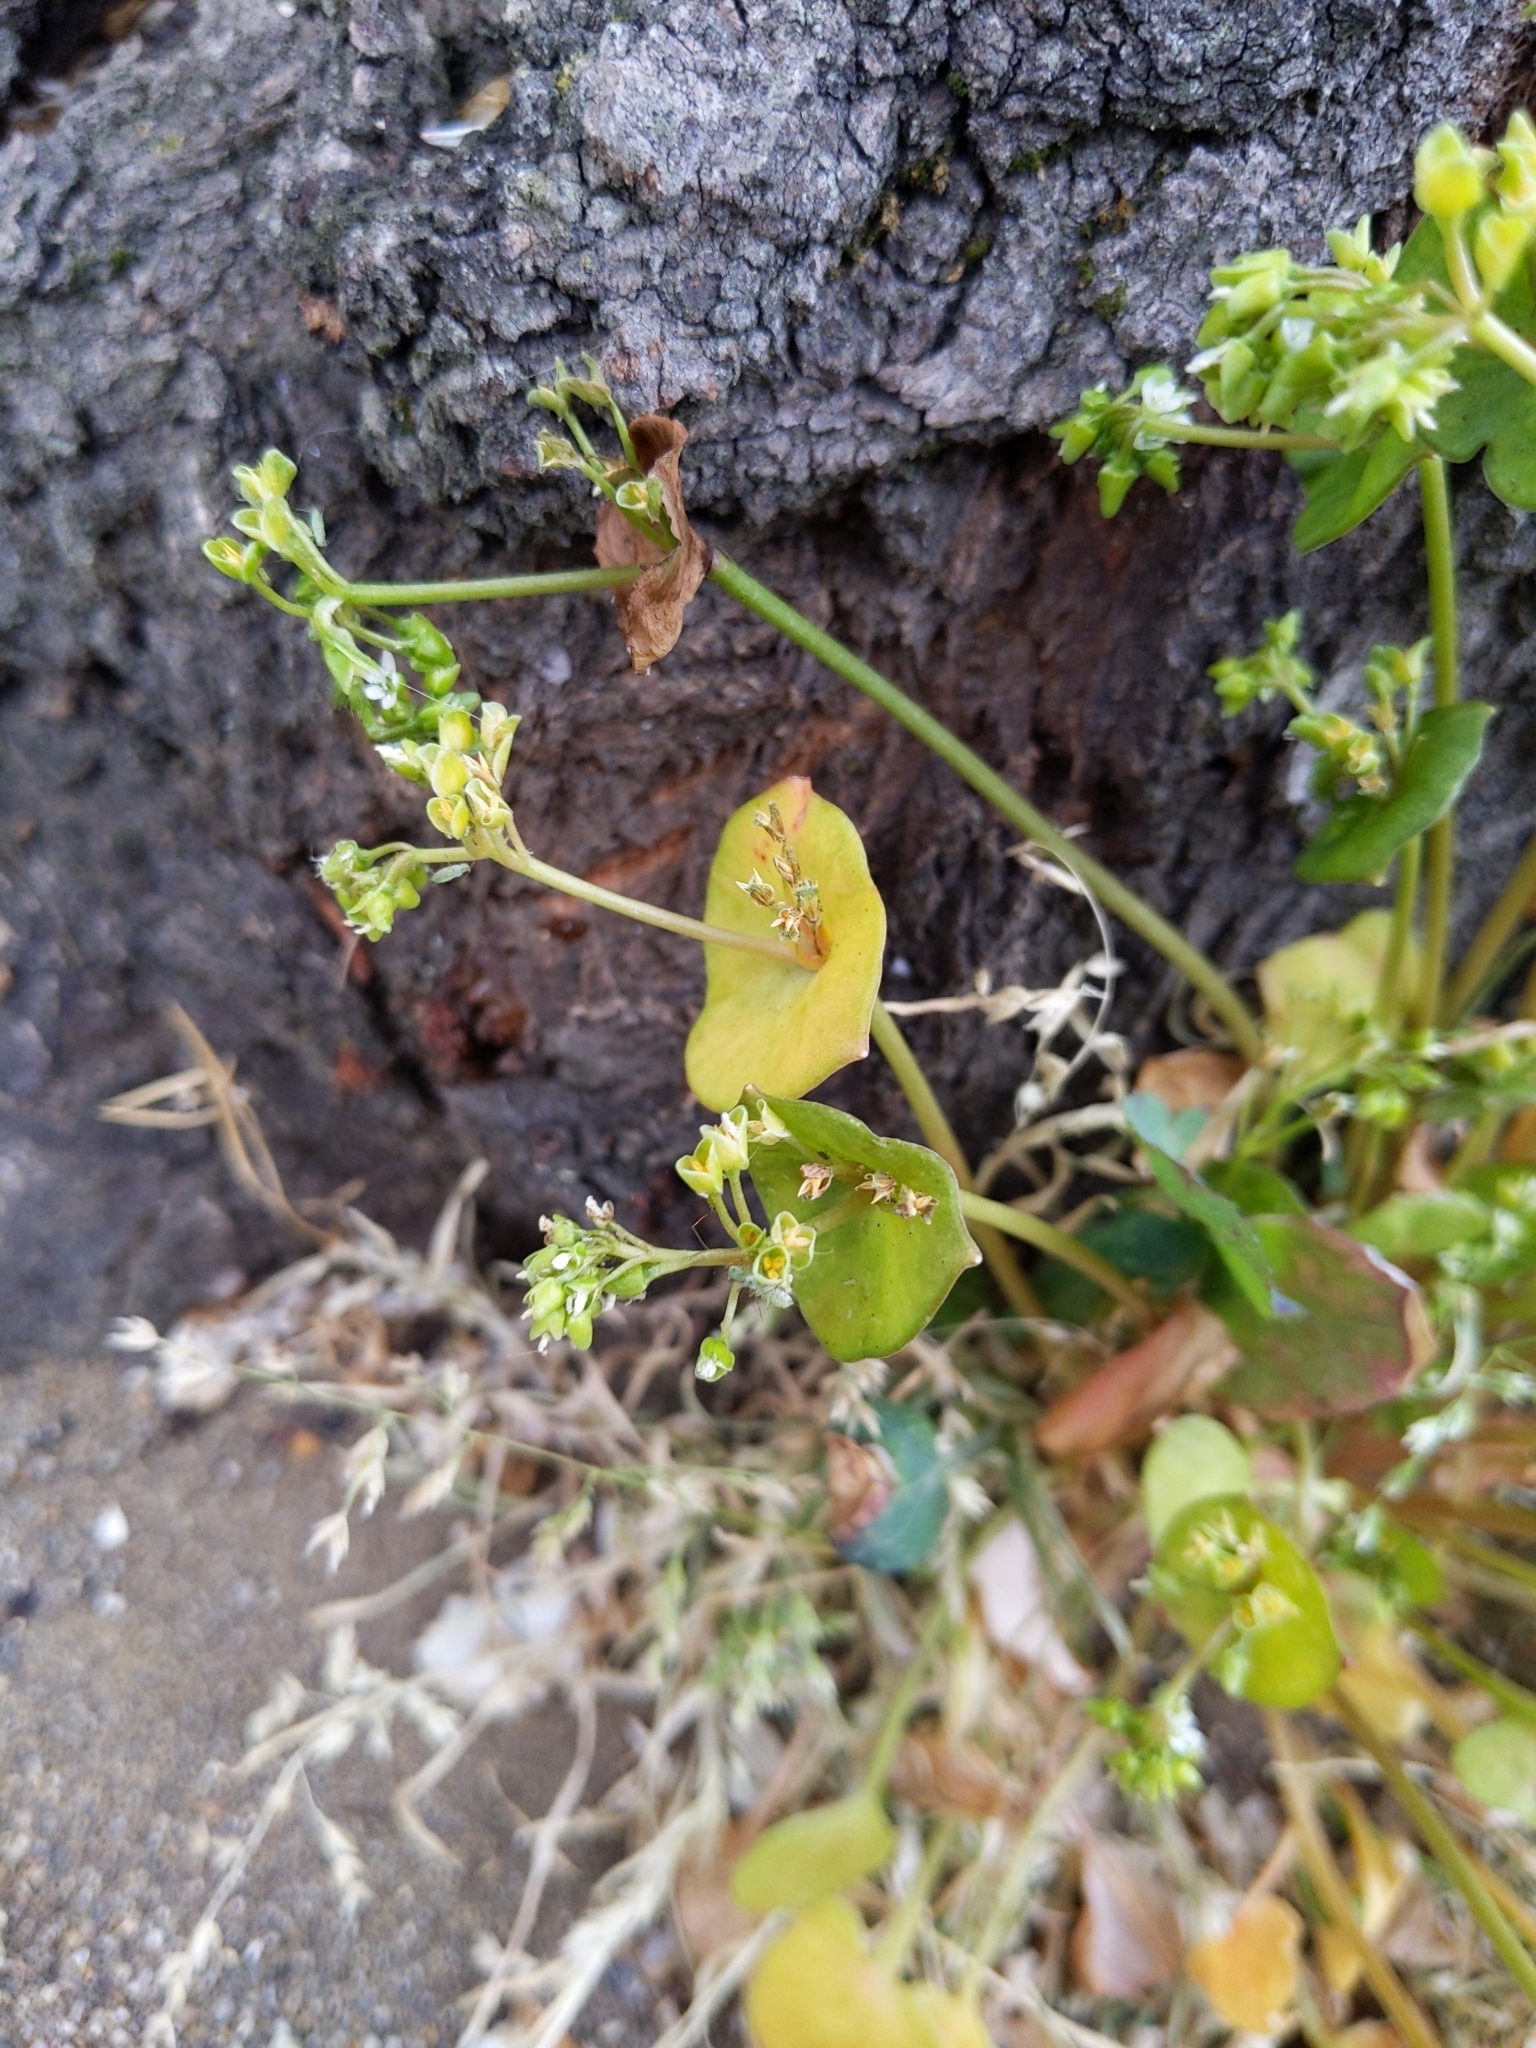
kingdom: Plantae
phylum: Tracheophyta
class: Magnoliopsida
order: Caryophyllales
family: Montiaceae
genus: Claytonia
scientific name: Claytonia perfoliata
